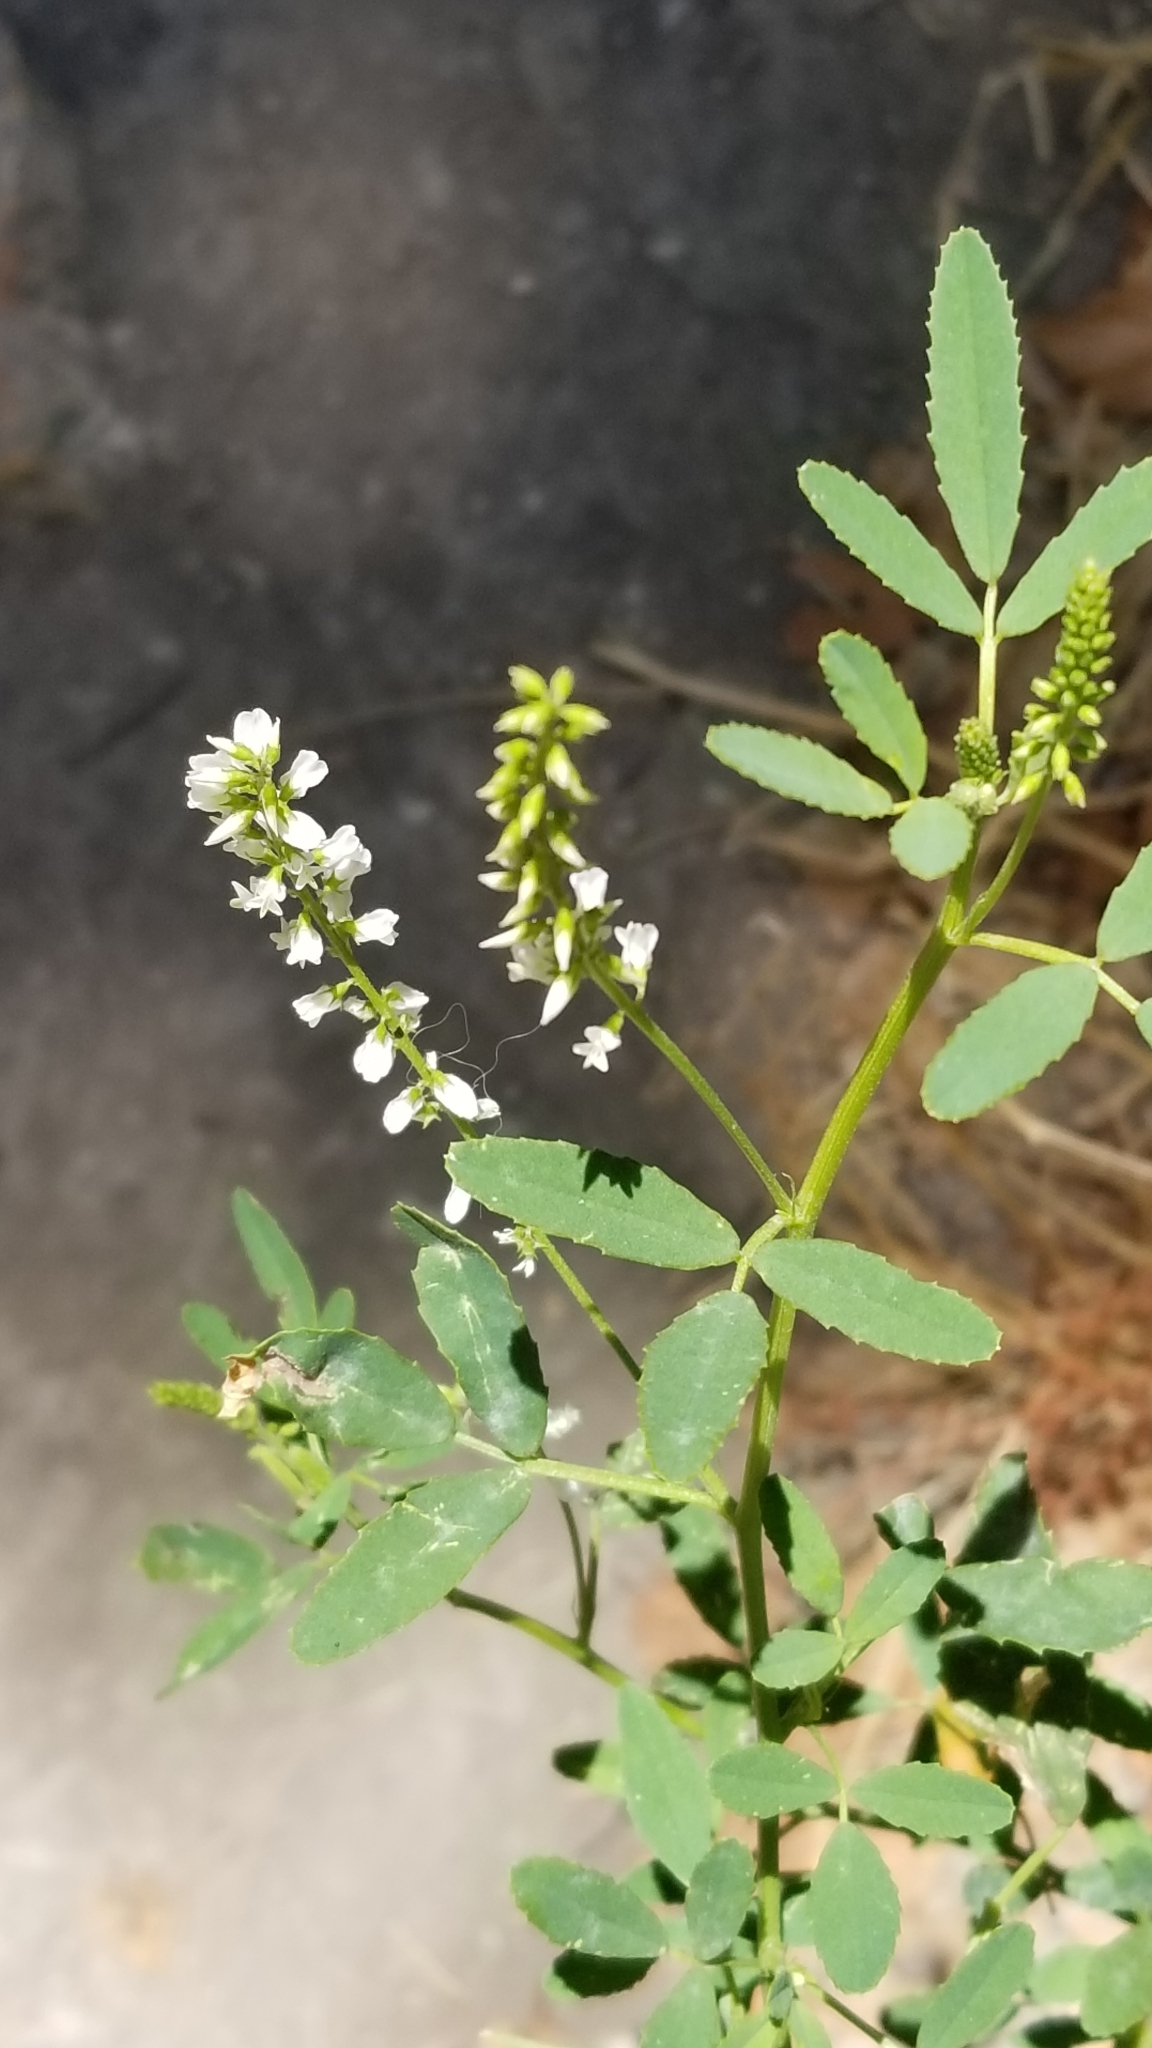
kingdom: Plantae
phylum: Tracheophyta
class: Magnoliopsida
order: Fabales
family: Fabaceae
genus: Melilotus
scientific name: Melilotus albus
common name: White melilot
